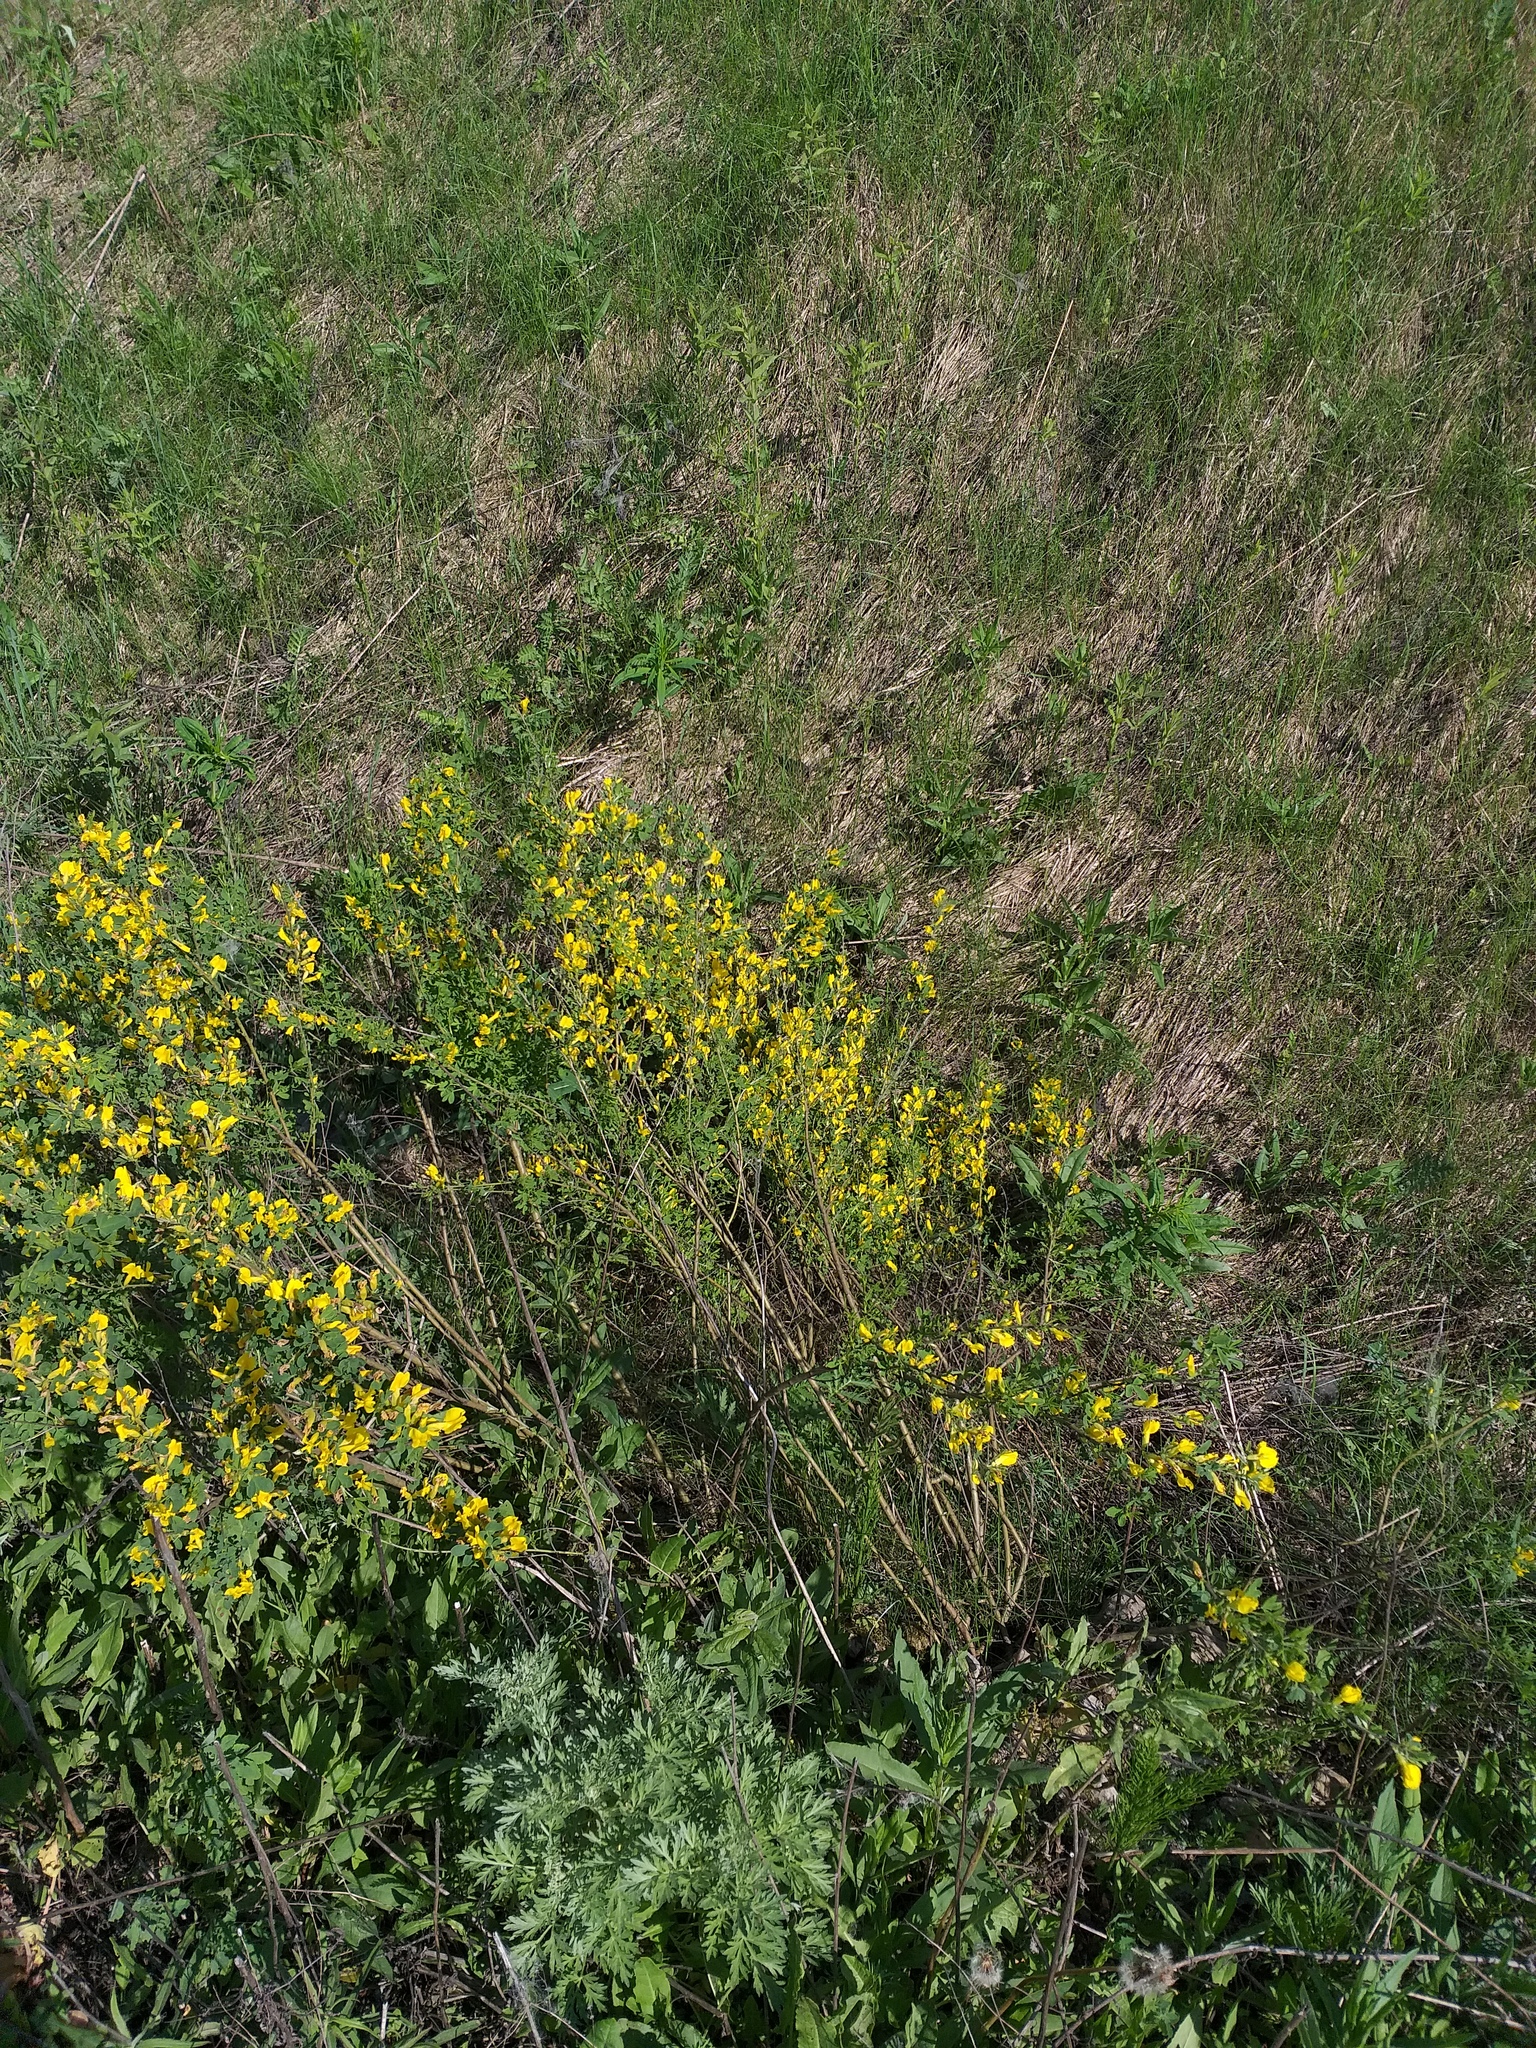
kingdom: Plantae
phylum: Tracheophyta
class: Magnoliopsida
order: Fabales
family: Fabaceae
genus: Chamaecytisus
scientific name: Chamaecytisus ruthenicus
